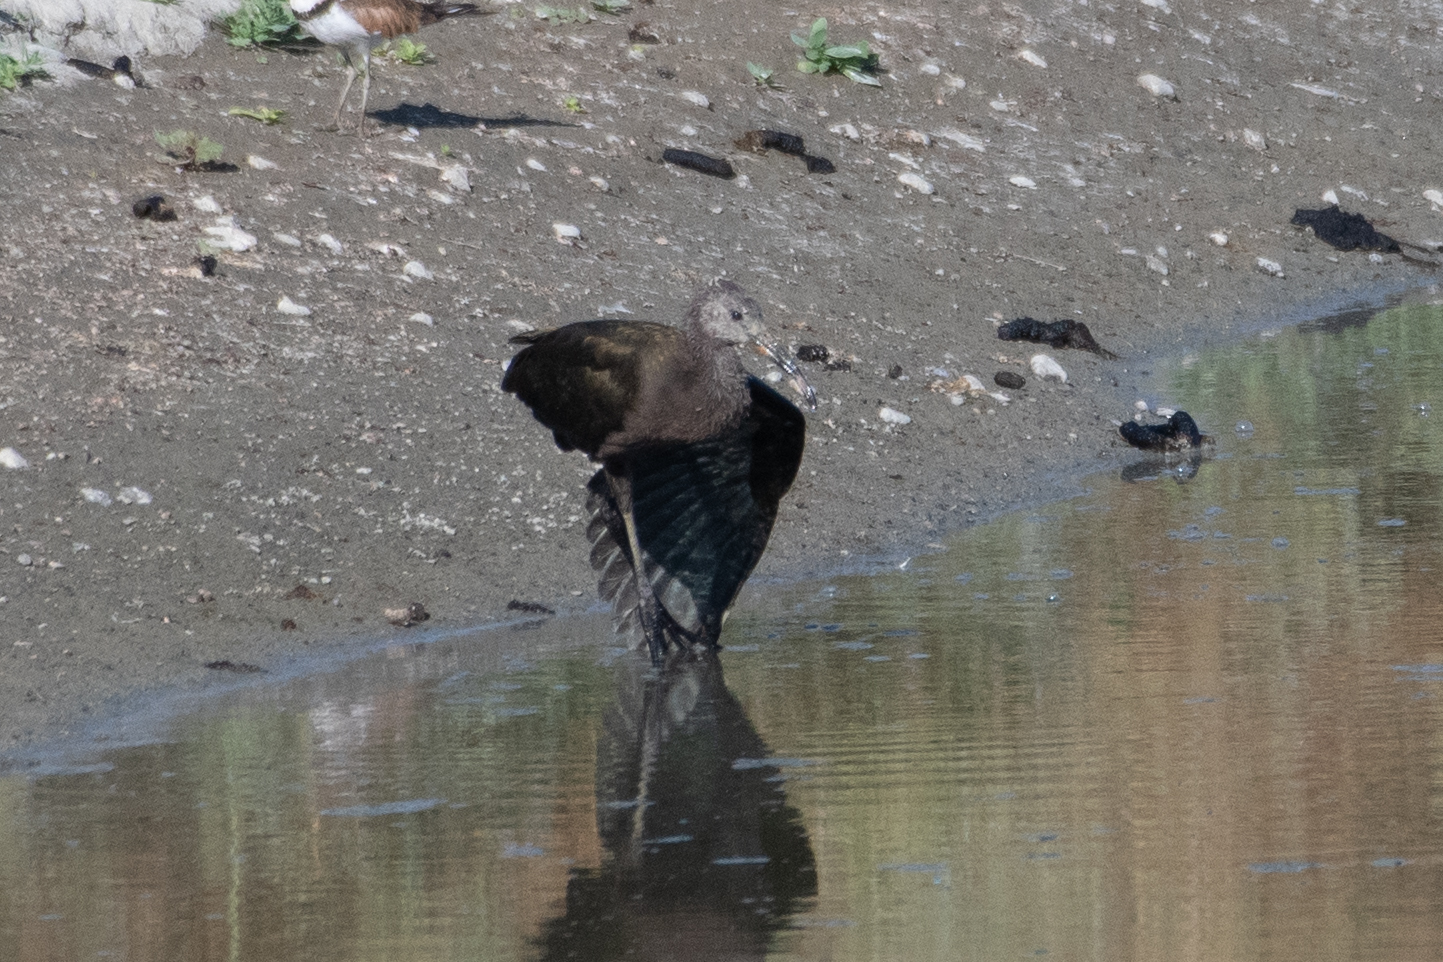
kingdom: Animalia
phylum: Chordata
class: Aves
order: Pelecaniformes
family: Threskiornithidae
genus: Plegadis
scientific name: Plegadis chihi
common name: White-faced ibis
